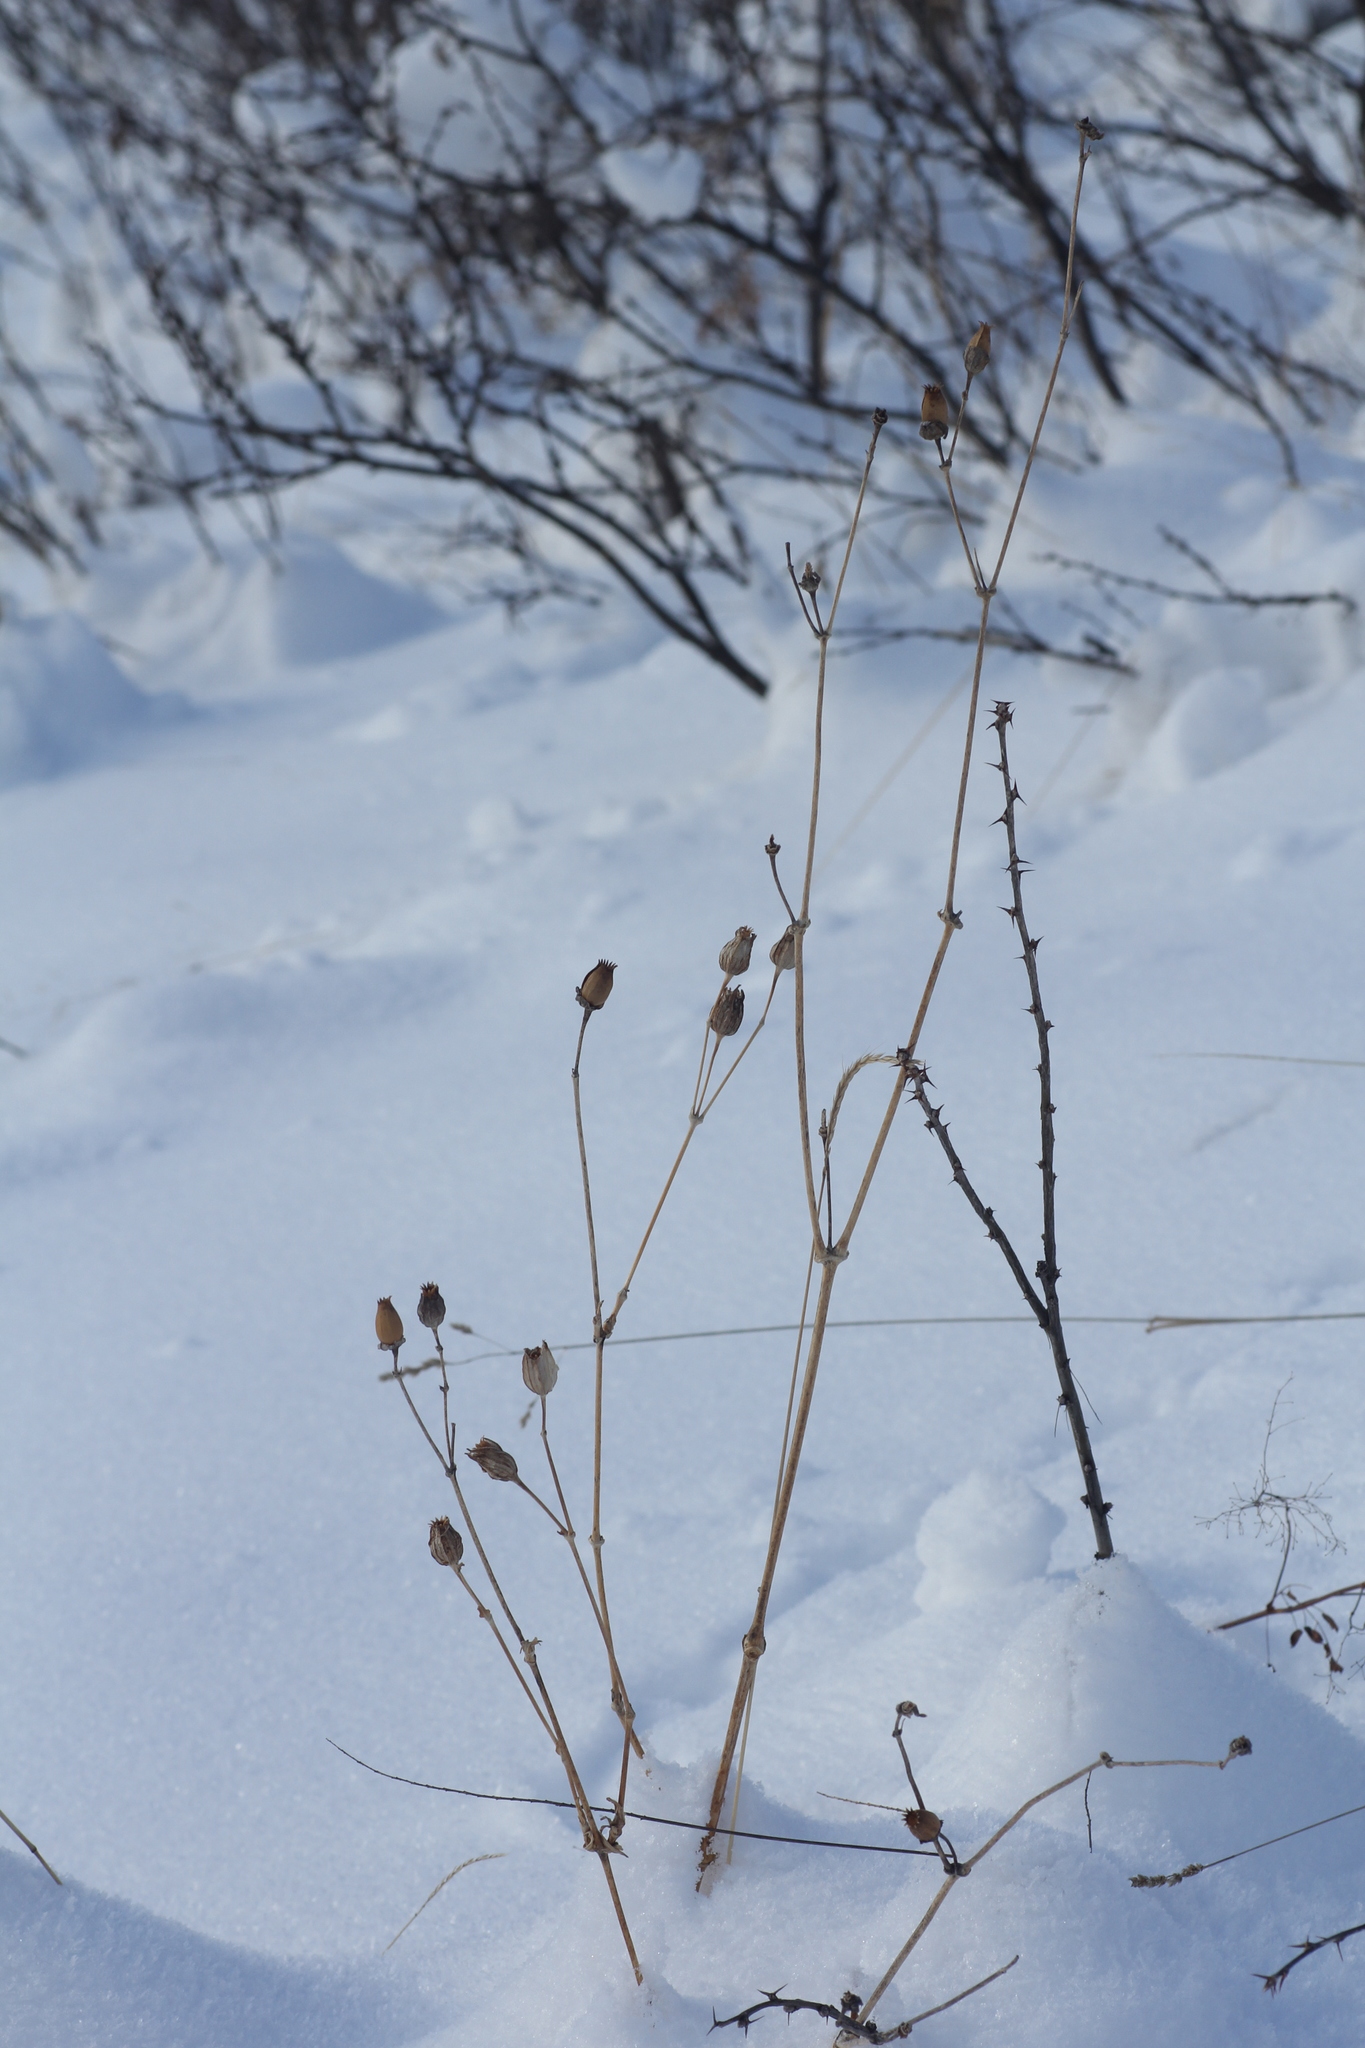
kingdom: Plantae
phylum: Tracheophyta
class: Magnoliopsida
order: Caryophyllales
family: Caryophyllaceae
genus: Silene
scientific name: Silene latifolia
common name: White campion
